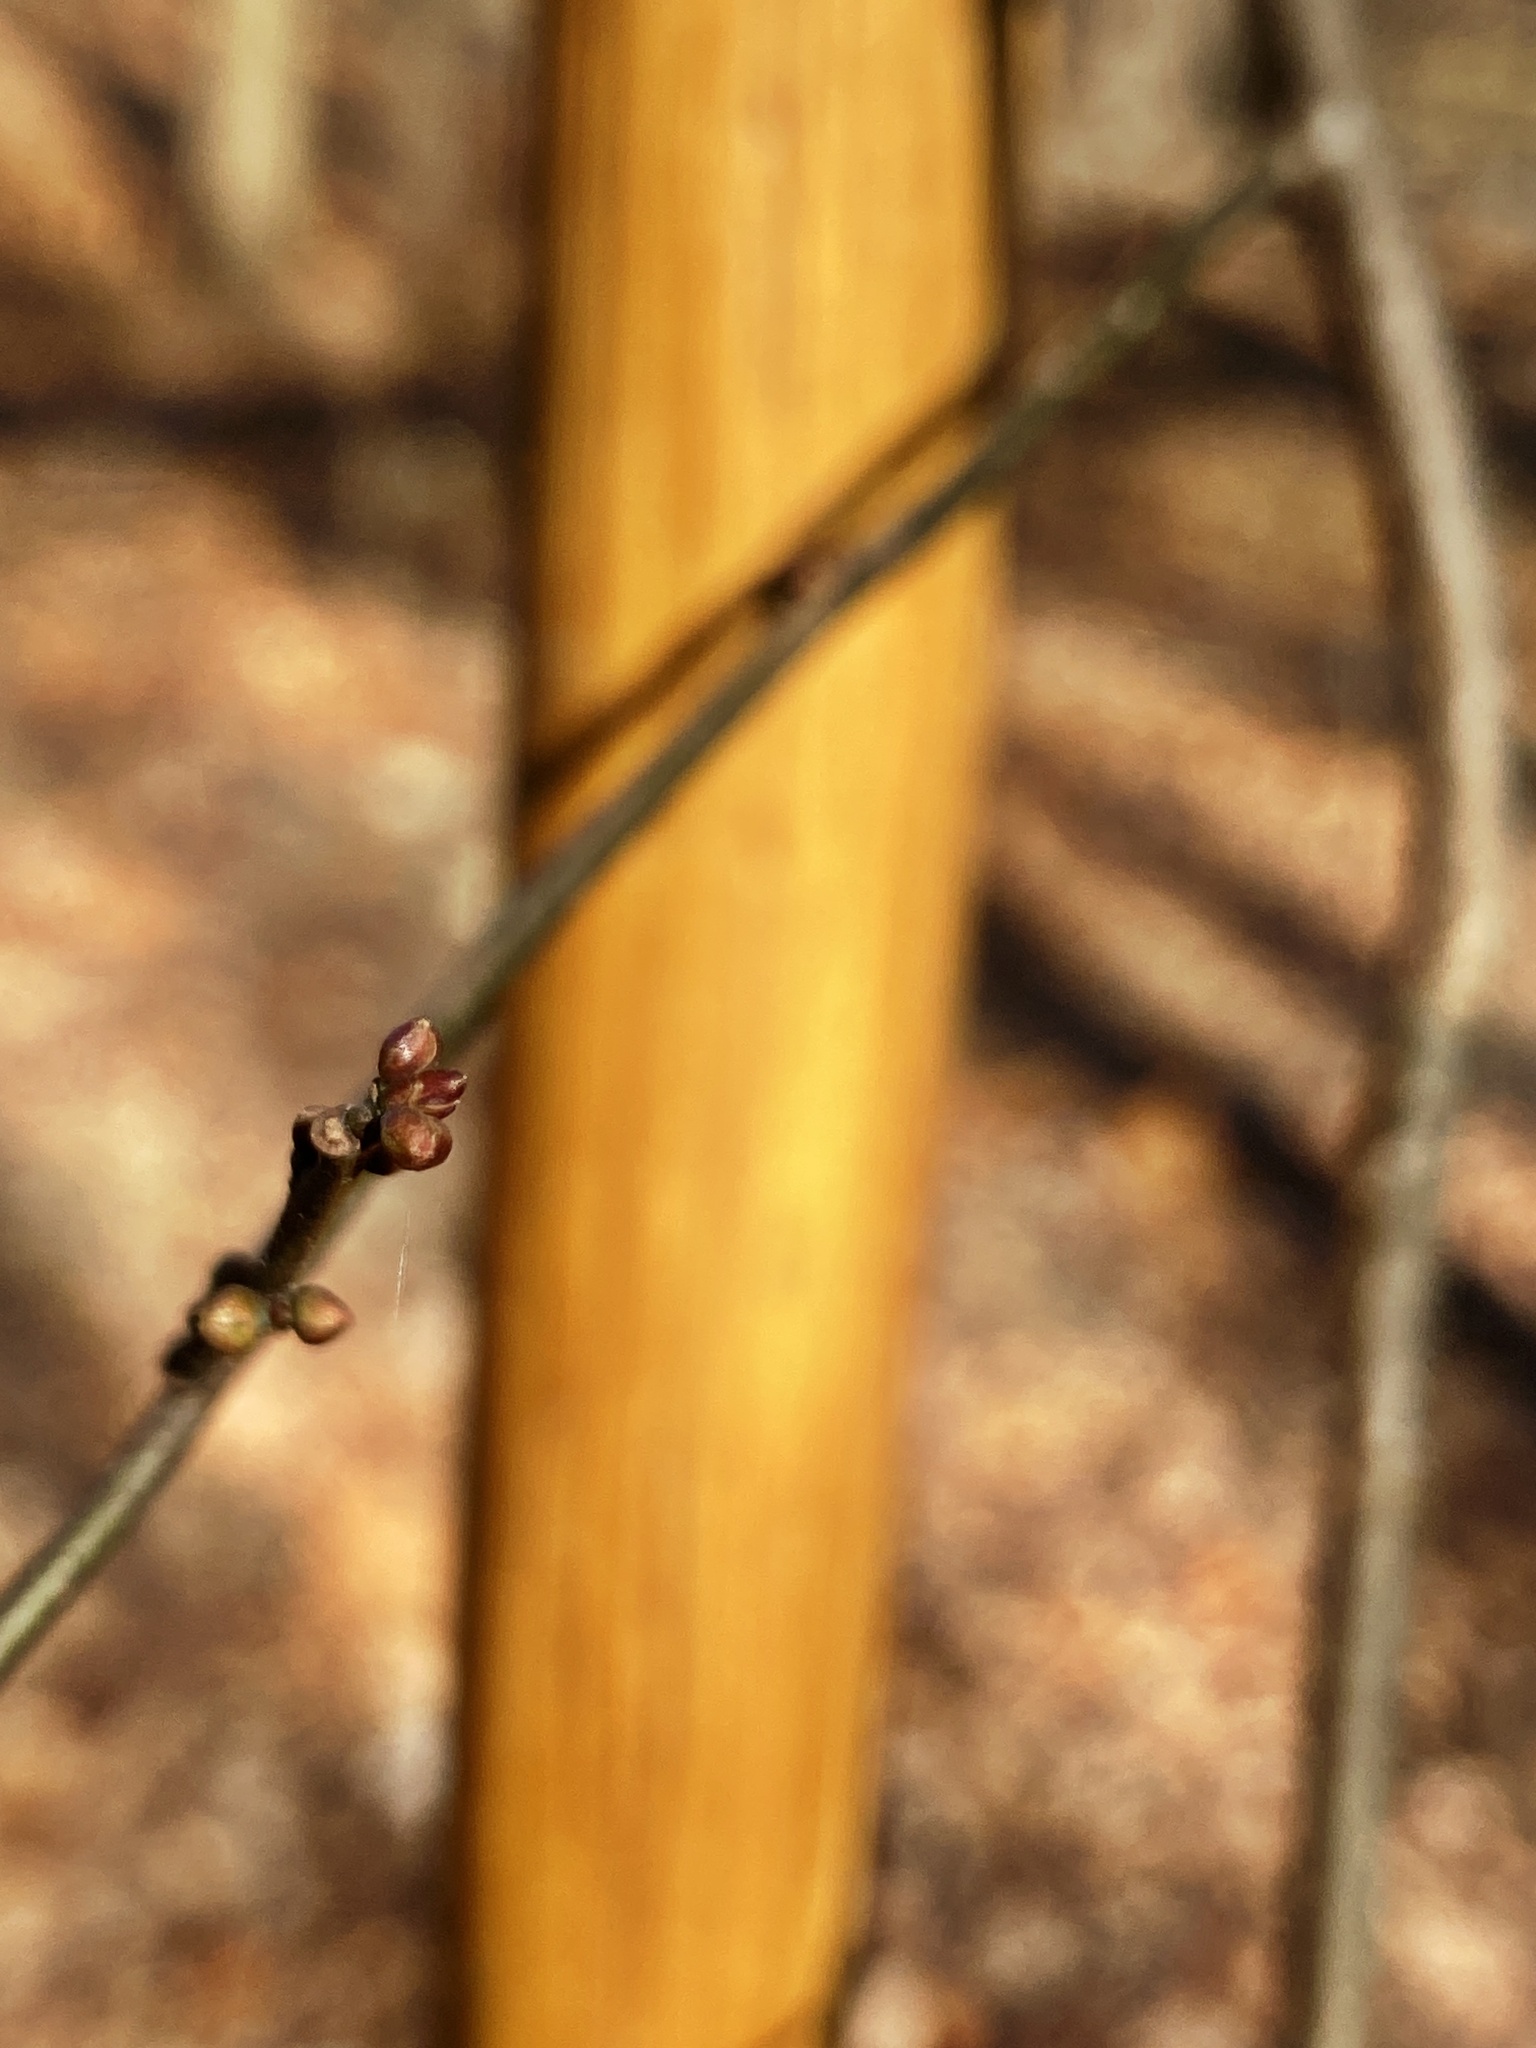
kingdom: Plantae
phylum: Tracheophyta
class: Magnoliopsida
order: Laurales
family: Lauraceae
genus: Lindera
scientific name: Lindera benzoin
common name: Spicebush
